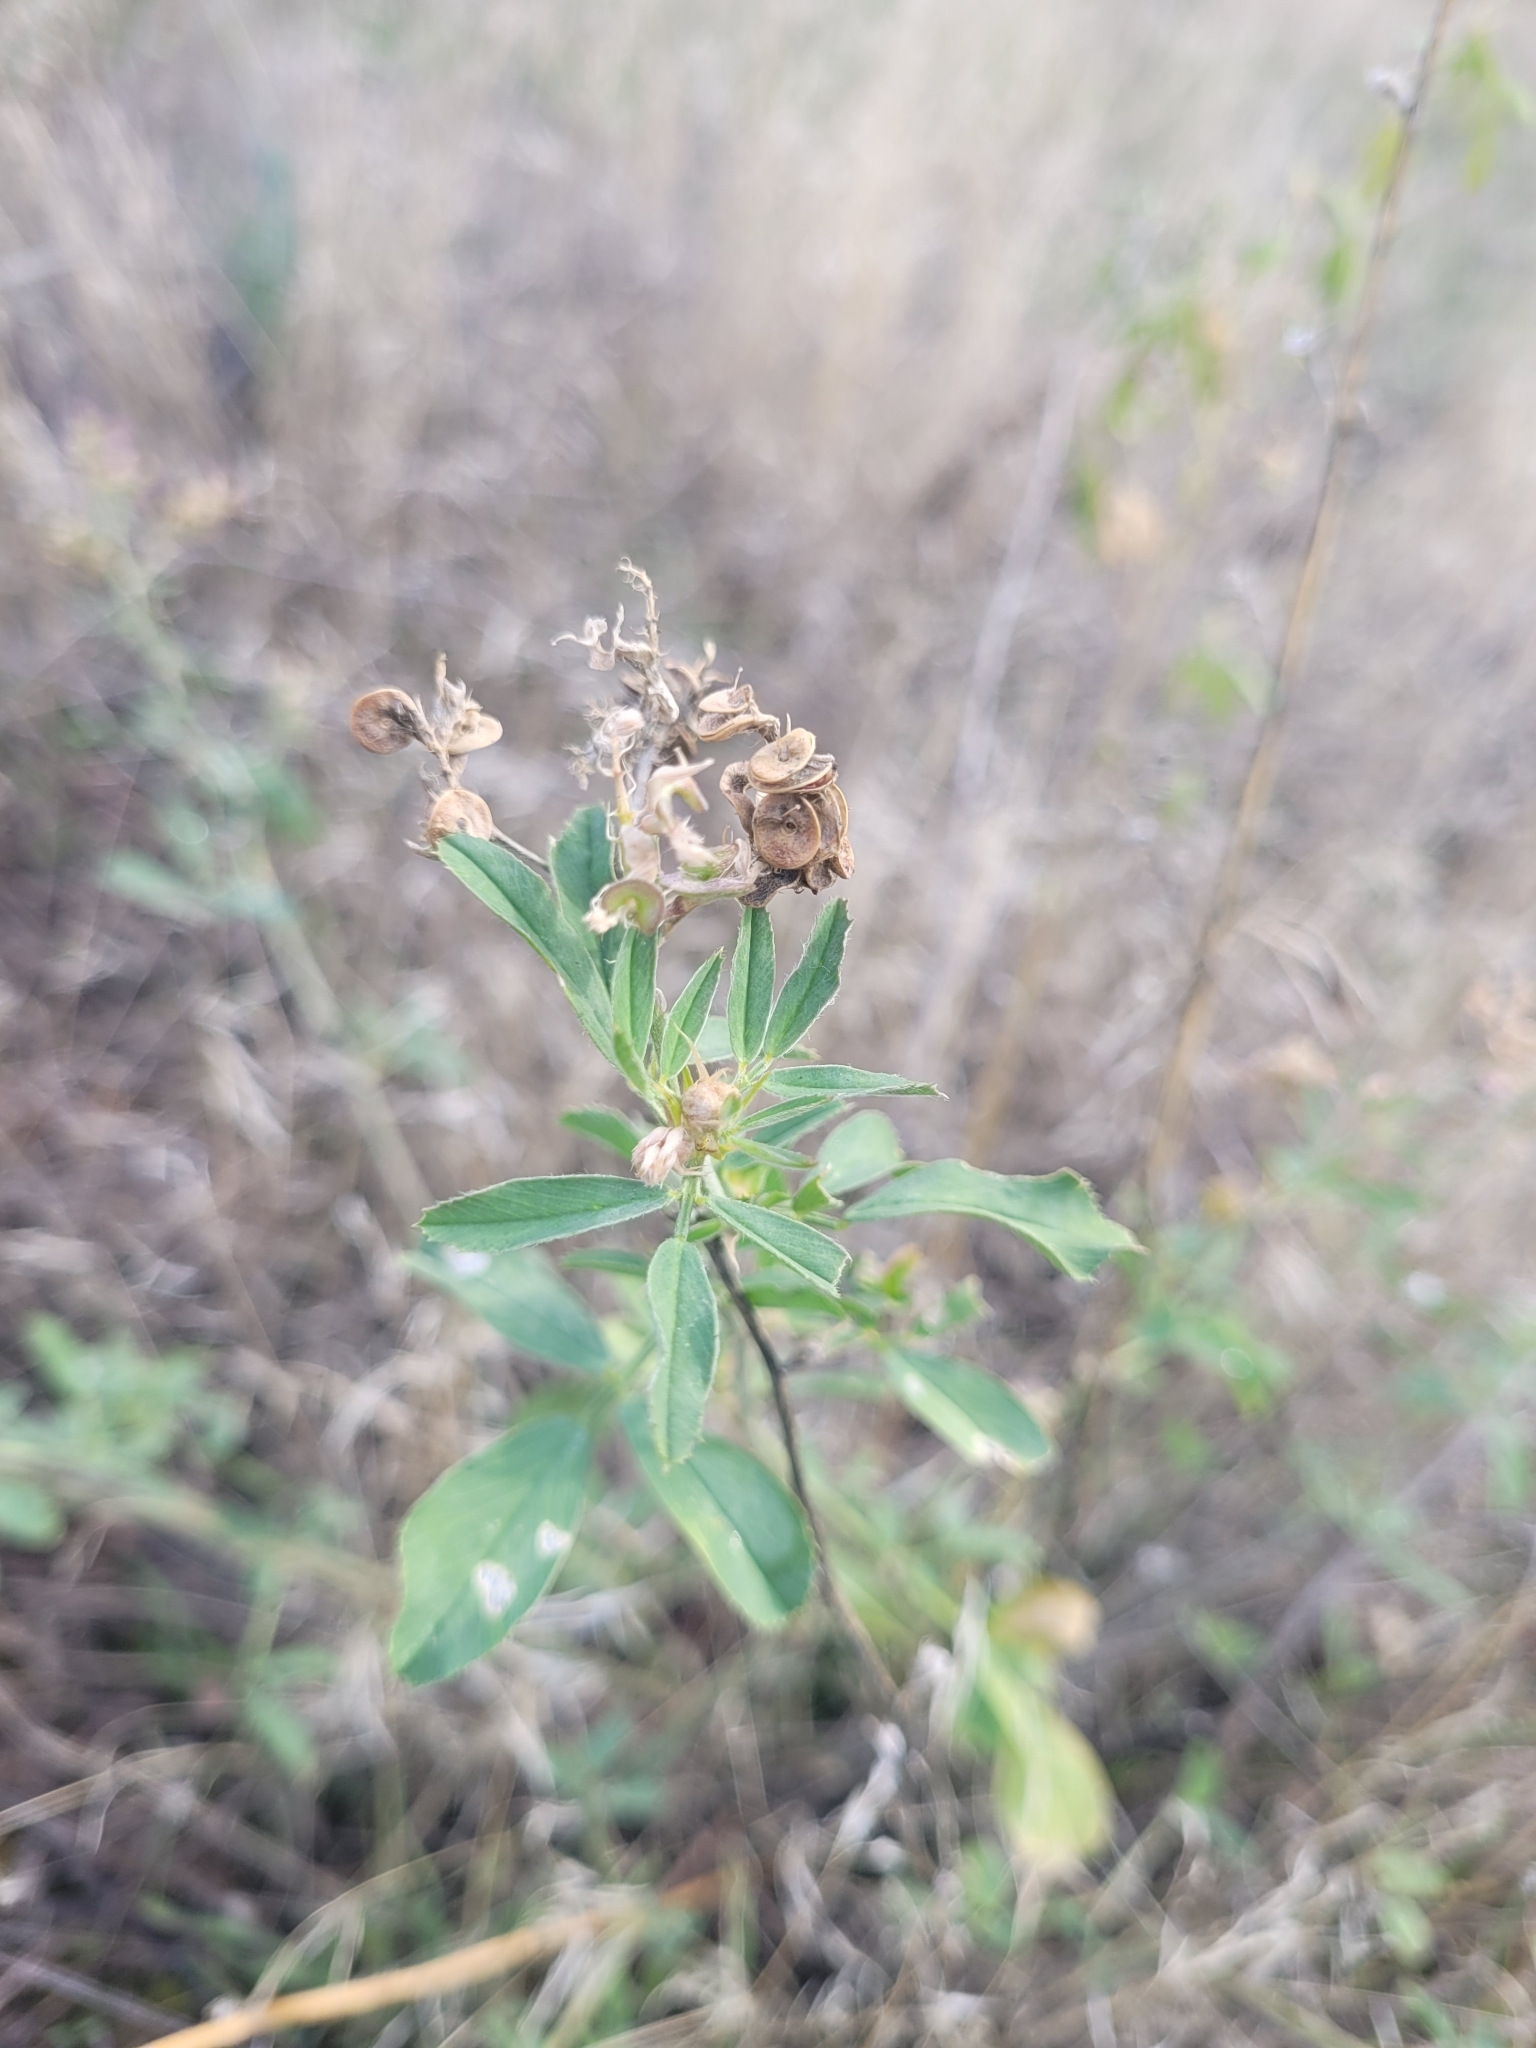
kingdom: Plantae
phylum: Tracheophyta
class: Magnoliopsida
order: Fabales
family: Fabaceae
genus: Medicago
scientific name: Medicago sativa
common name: Alfalfa
